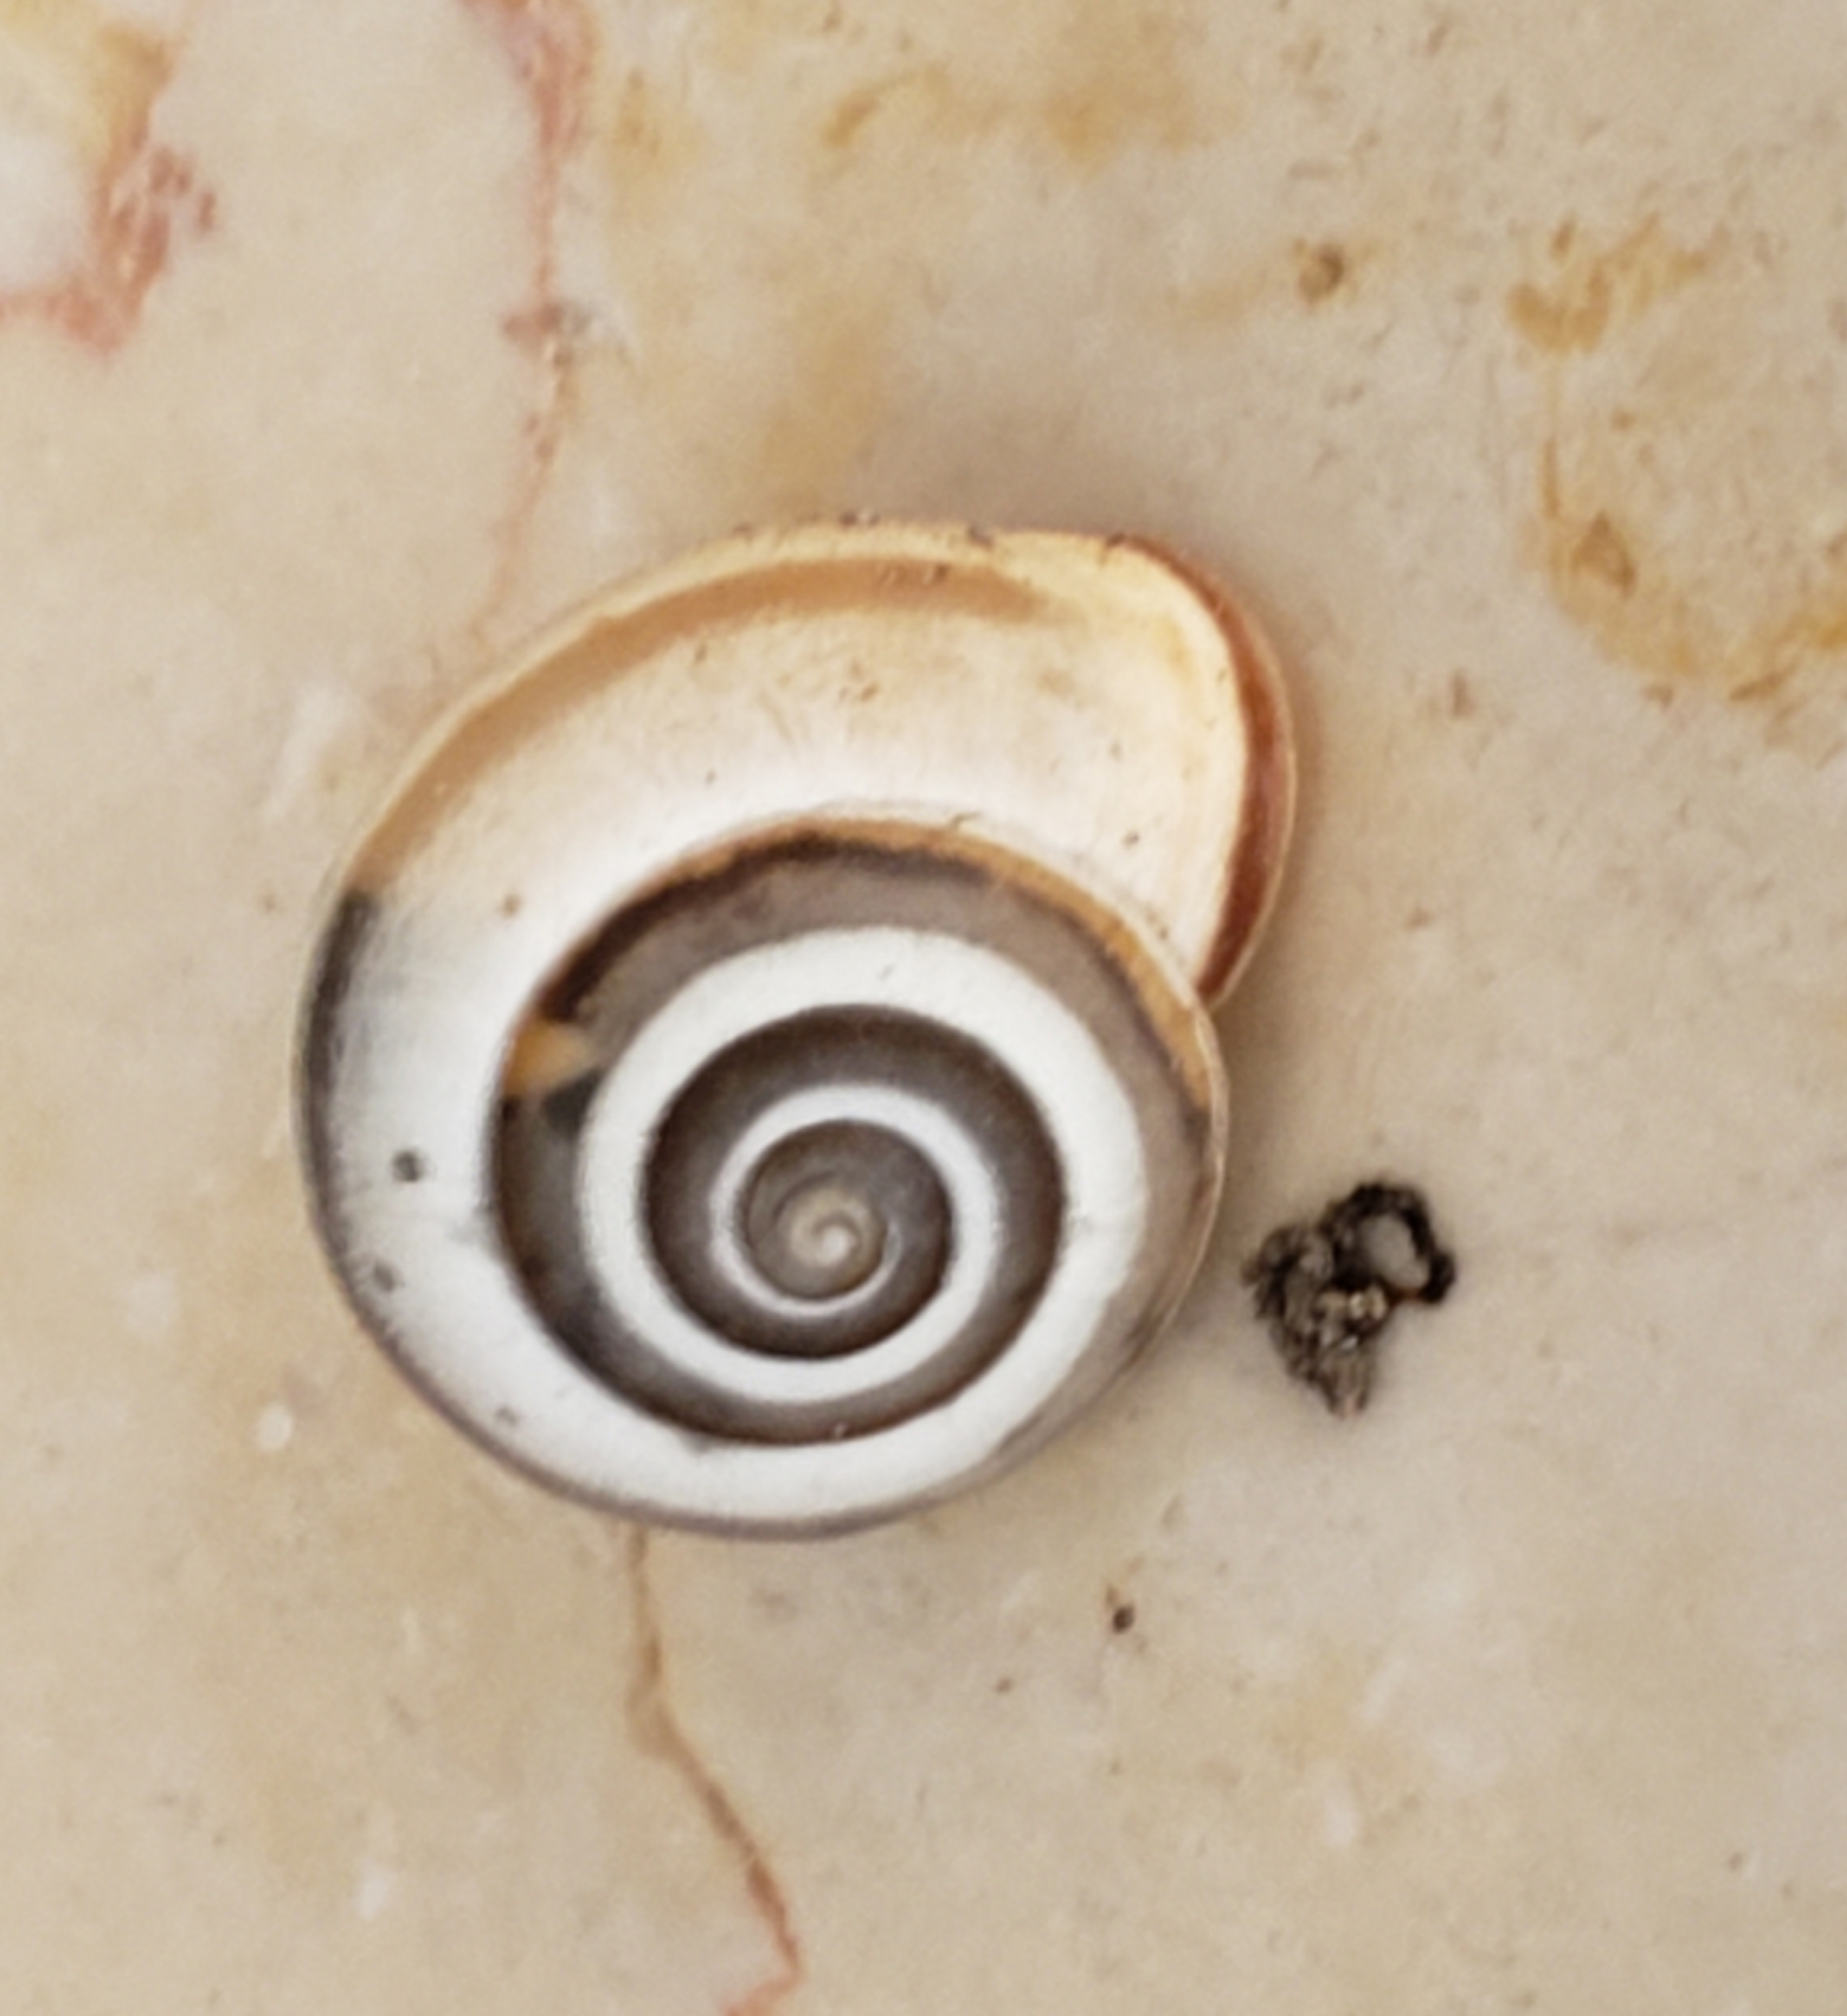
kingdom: Animalia
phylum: Mollusca
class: Gastropoda
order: Stylommatophora
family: Hygromiidae
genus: Monacha
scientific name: Monacha syriaca
